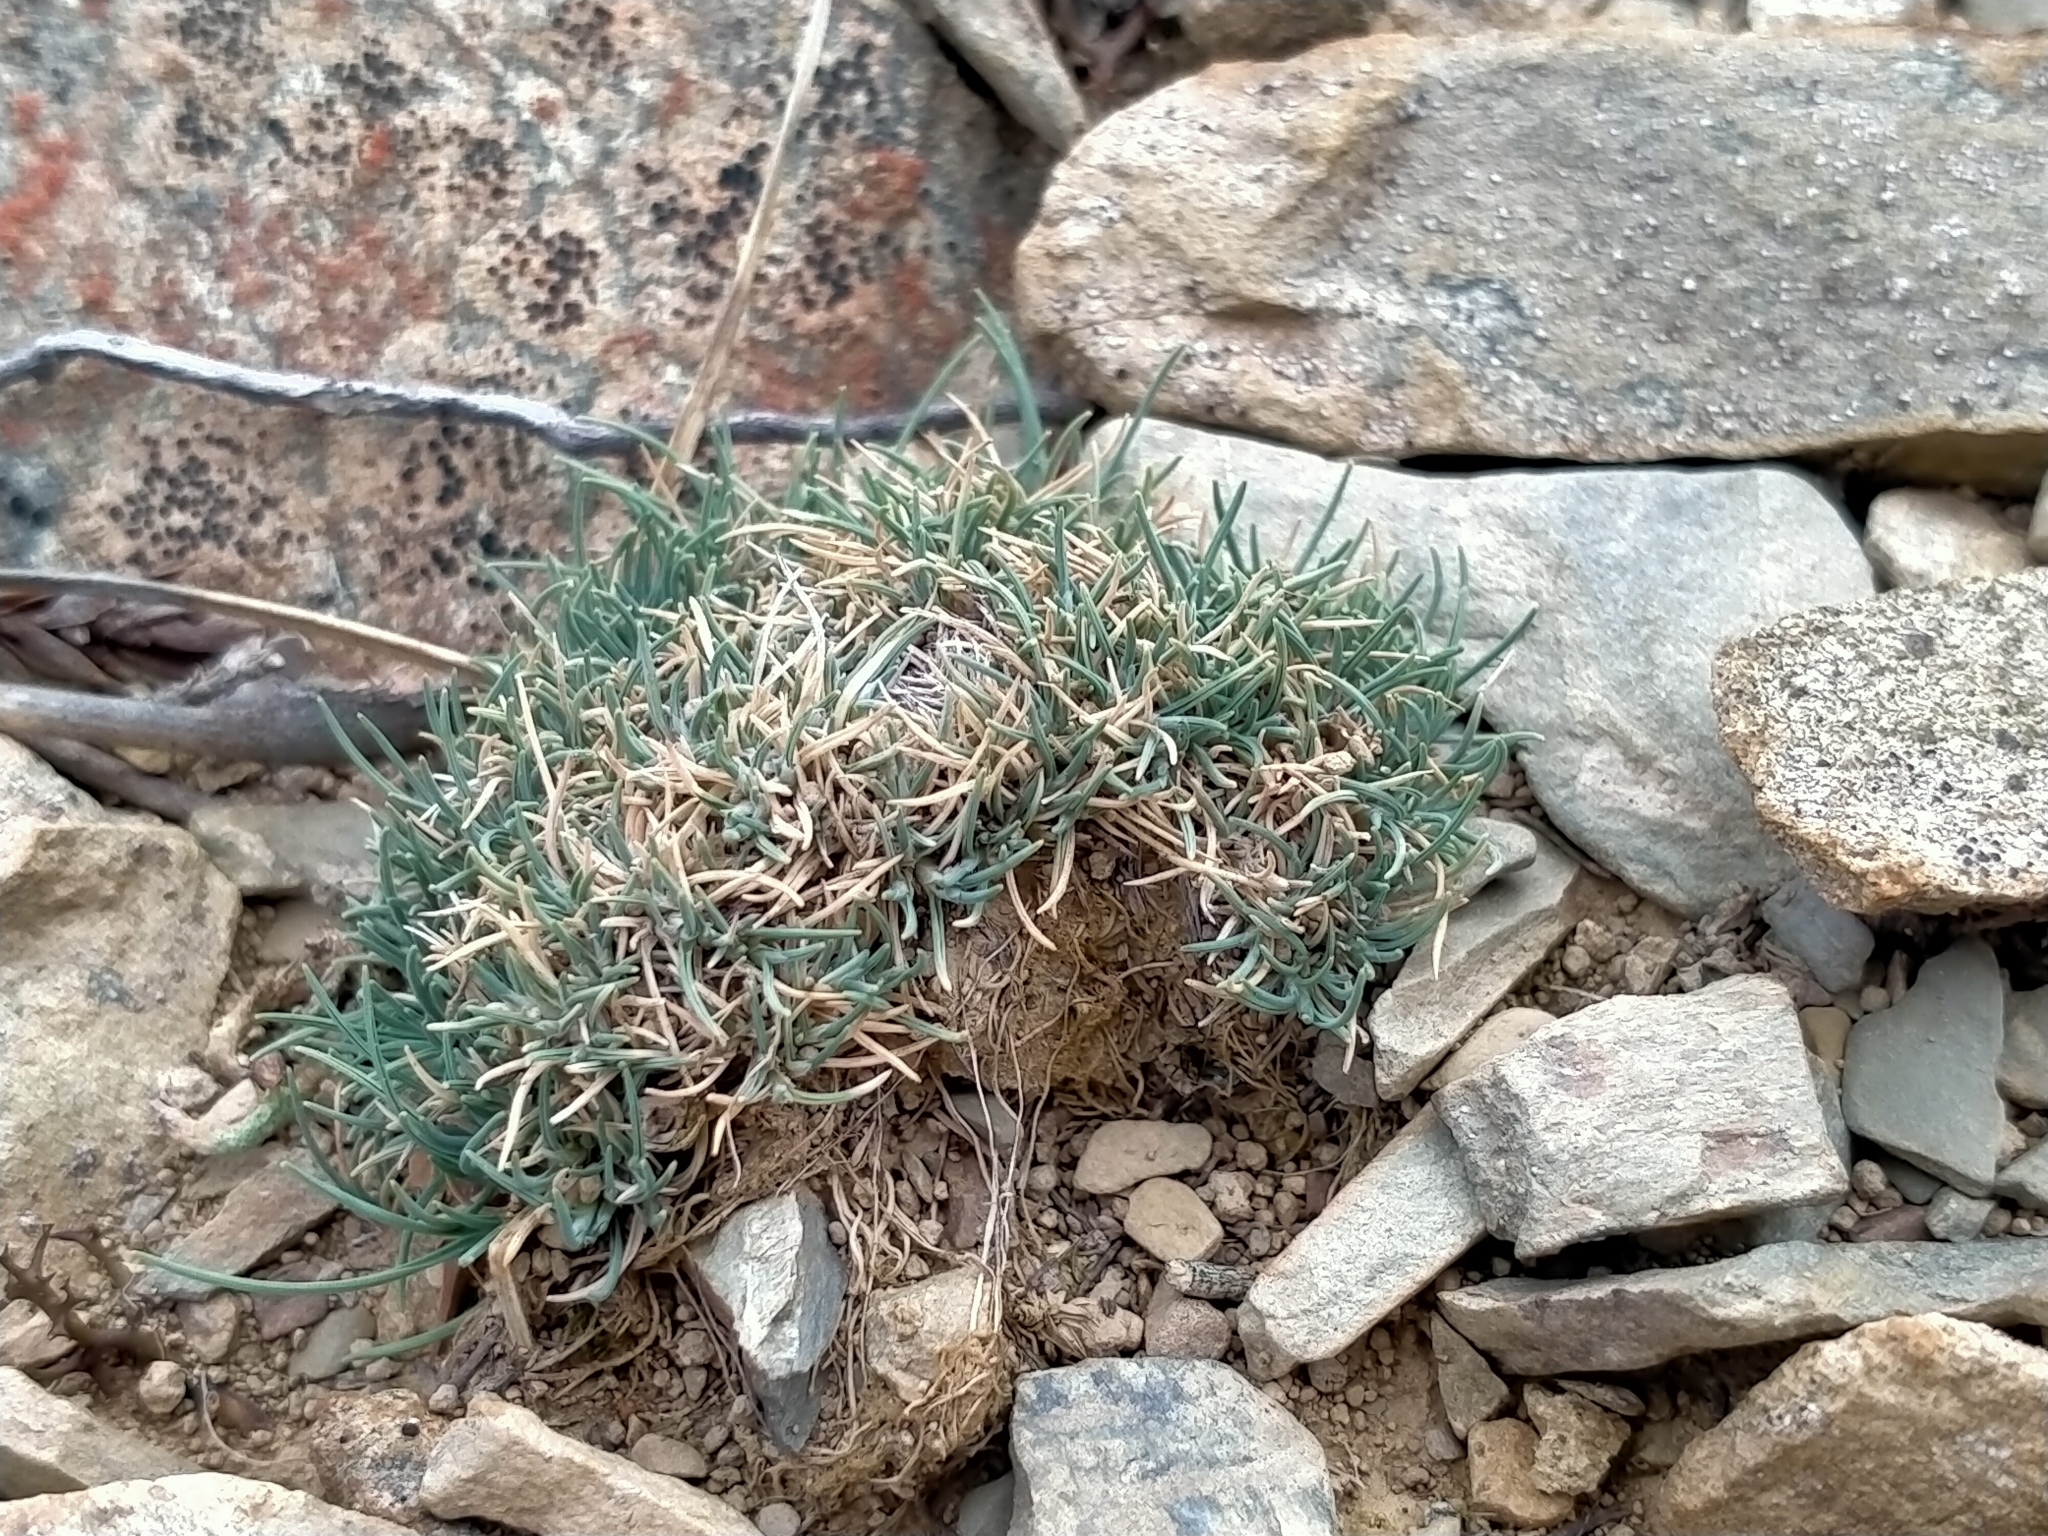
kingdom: Plantae
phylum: Tracheophyta
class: Liliopsida
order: Poales
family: Poaceae
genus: Agrostis
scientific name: Agrostis muscosa
